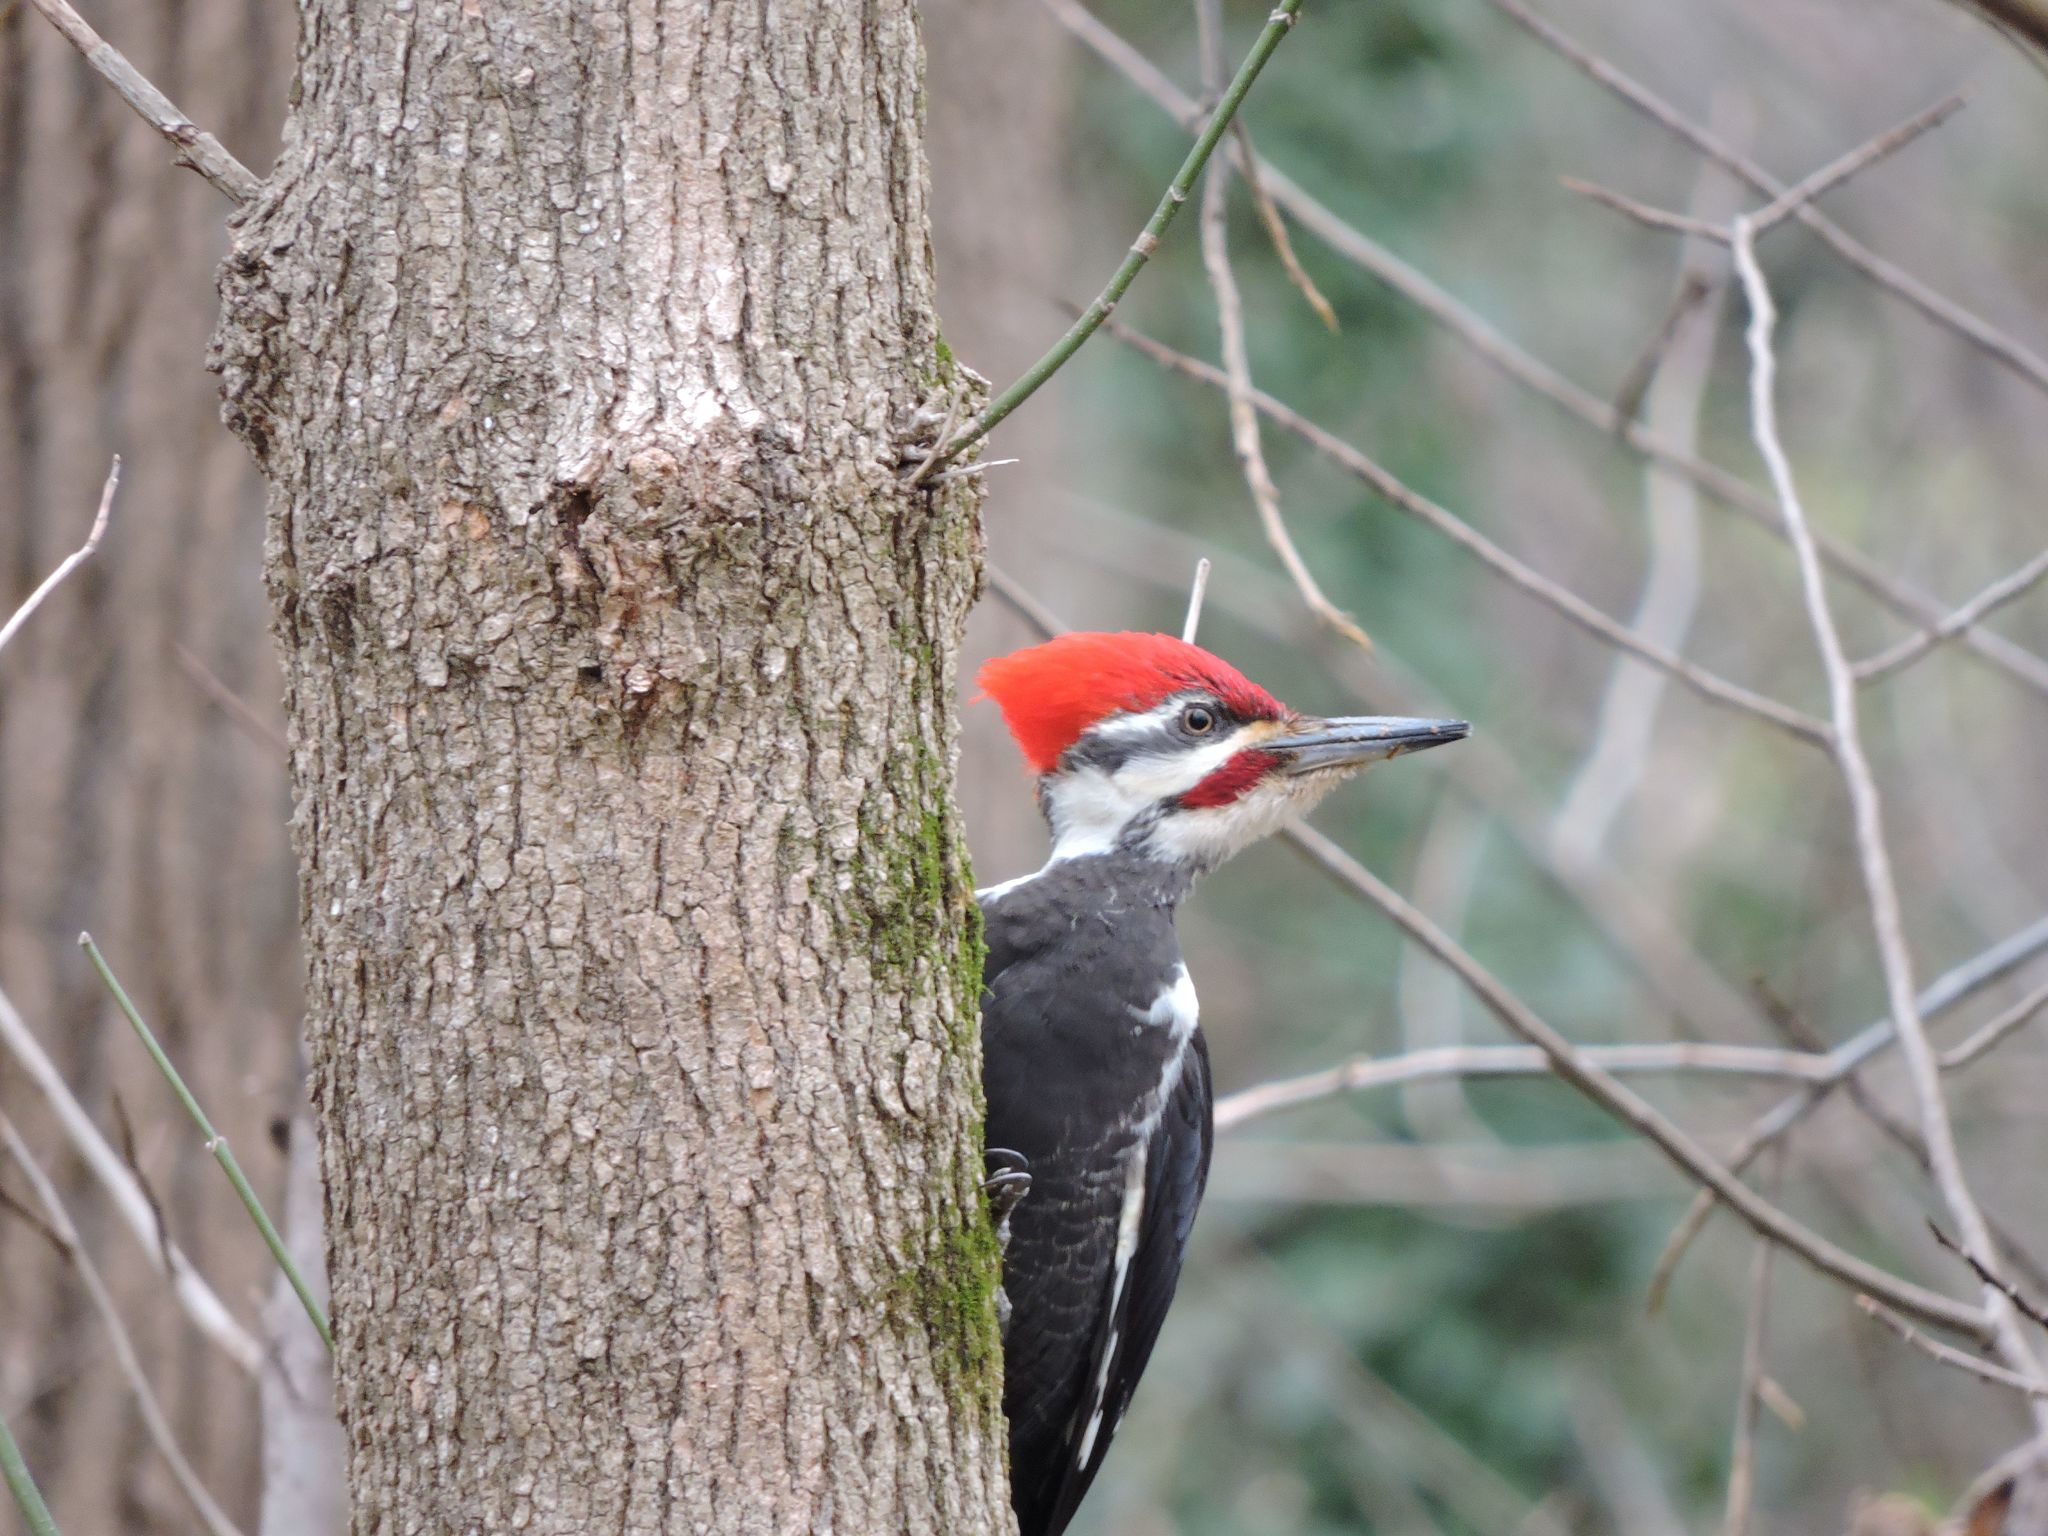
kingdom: Animalia
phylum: Chordata
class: Aves
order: Piciformes
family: Picidae
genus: Dryocopus
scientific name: Dryocopus pileatus
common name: Pileated woodpecker
